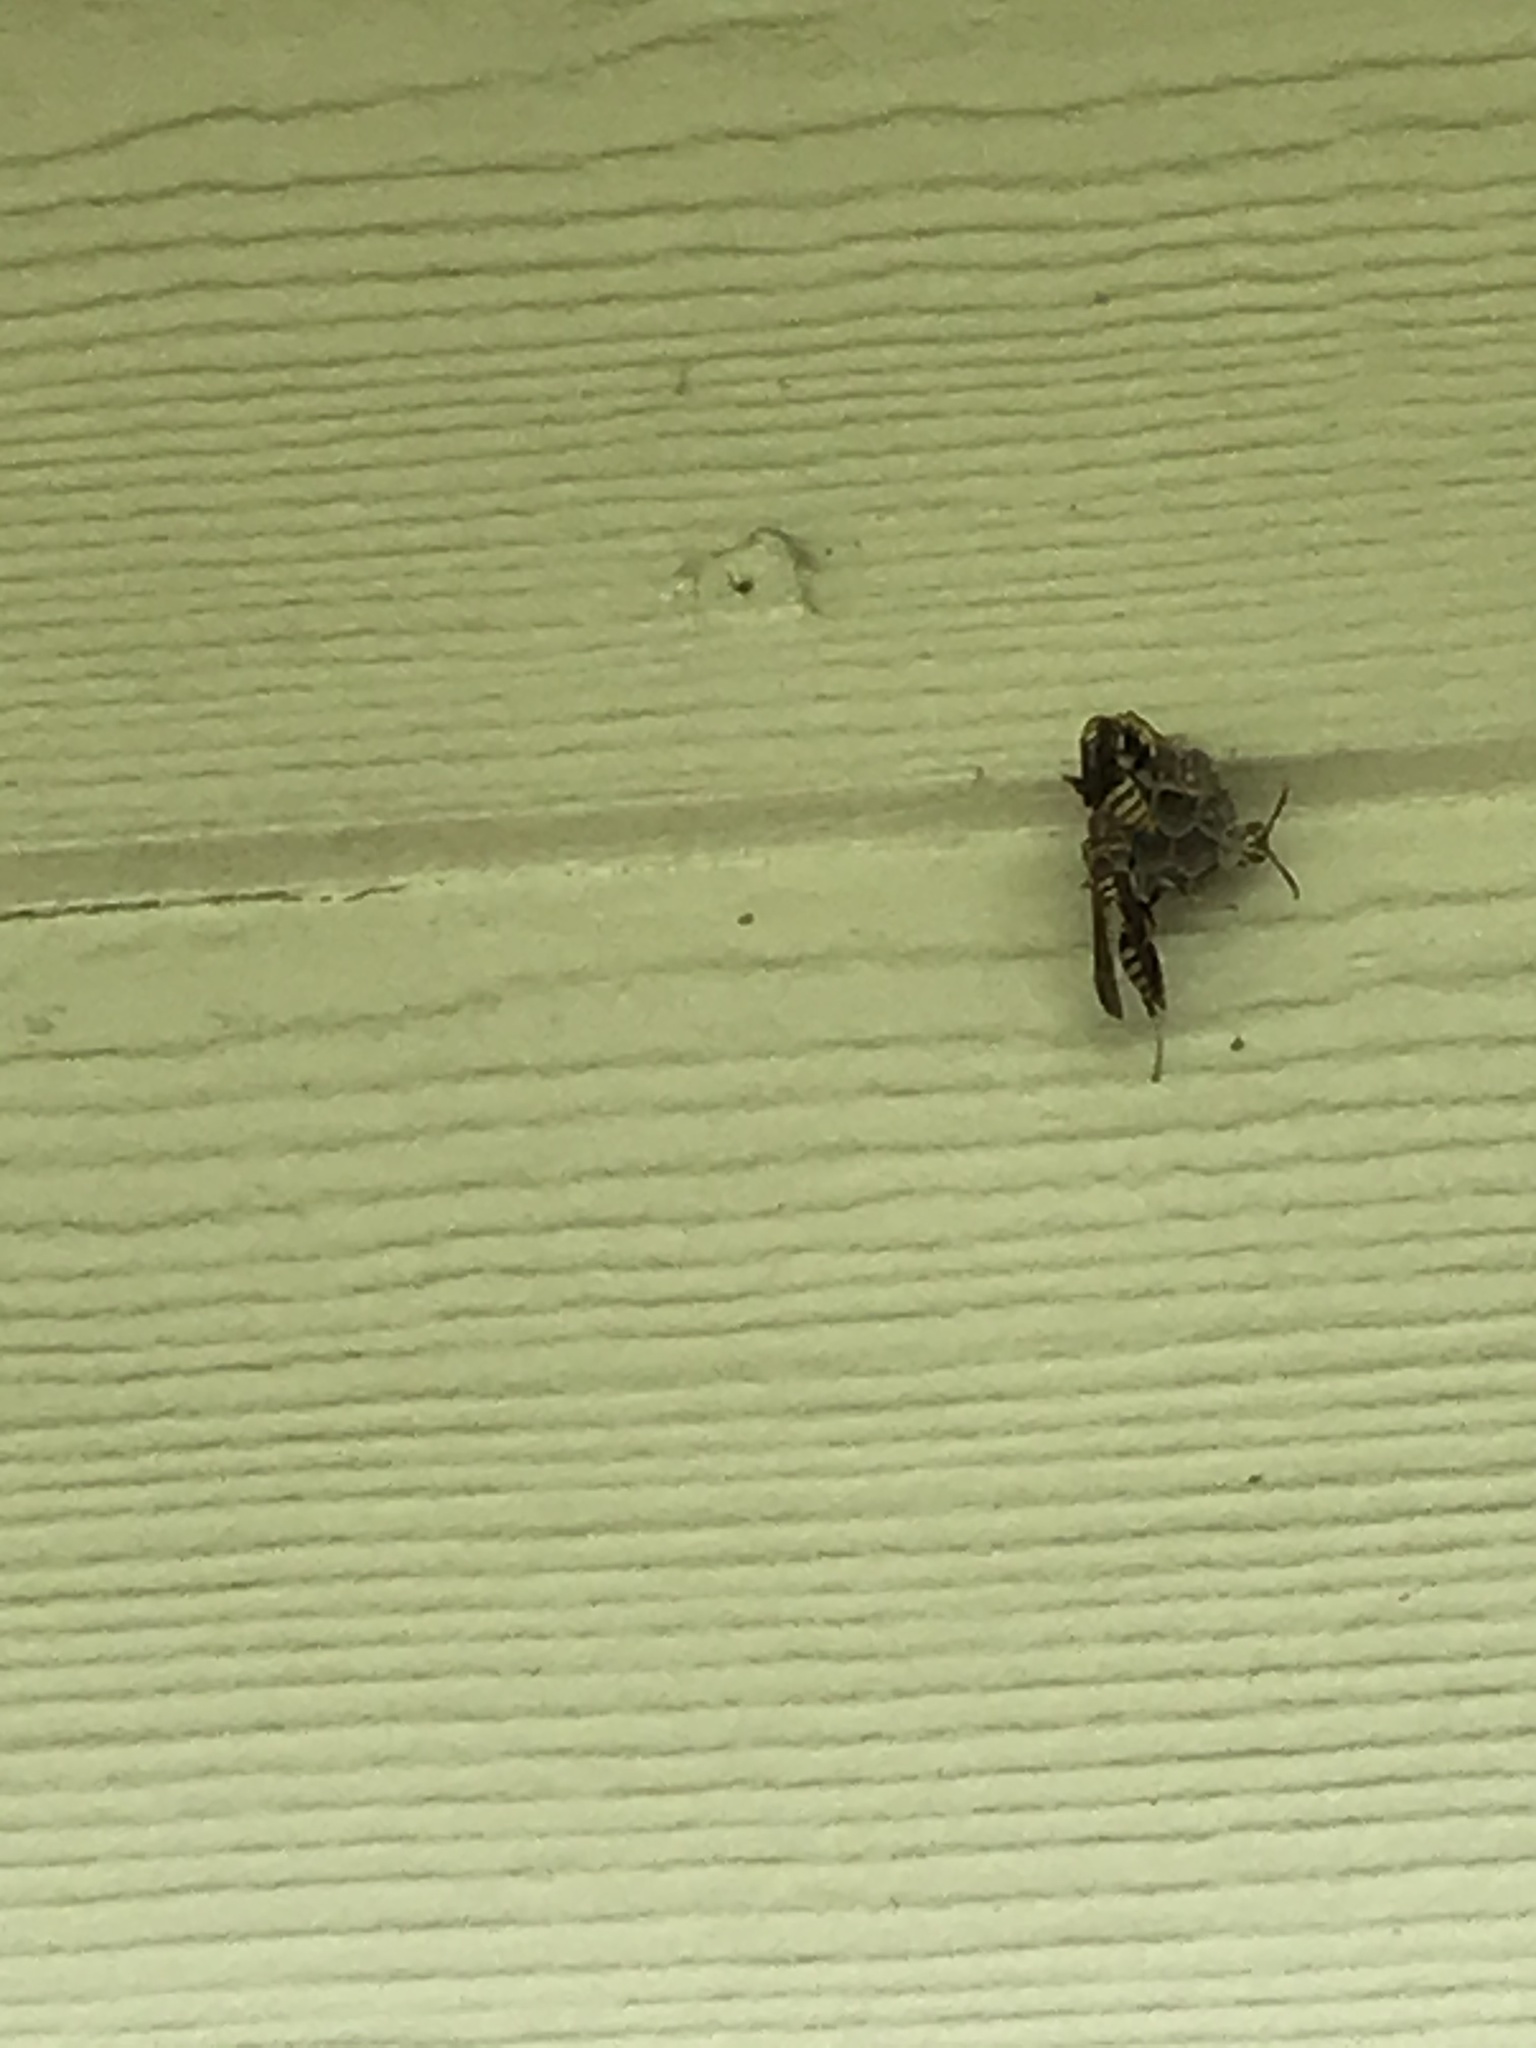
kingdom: Animalia
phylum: Arthropoda
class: Insecta
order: Hymenoptera
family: Eumenidae
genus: Polistes
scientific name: Polistes exclamans
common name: Paper wasp
